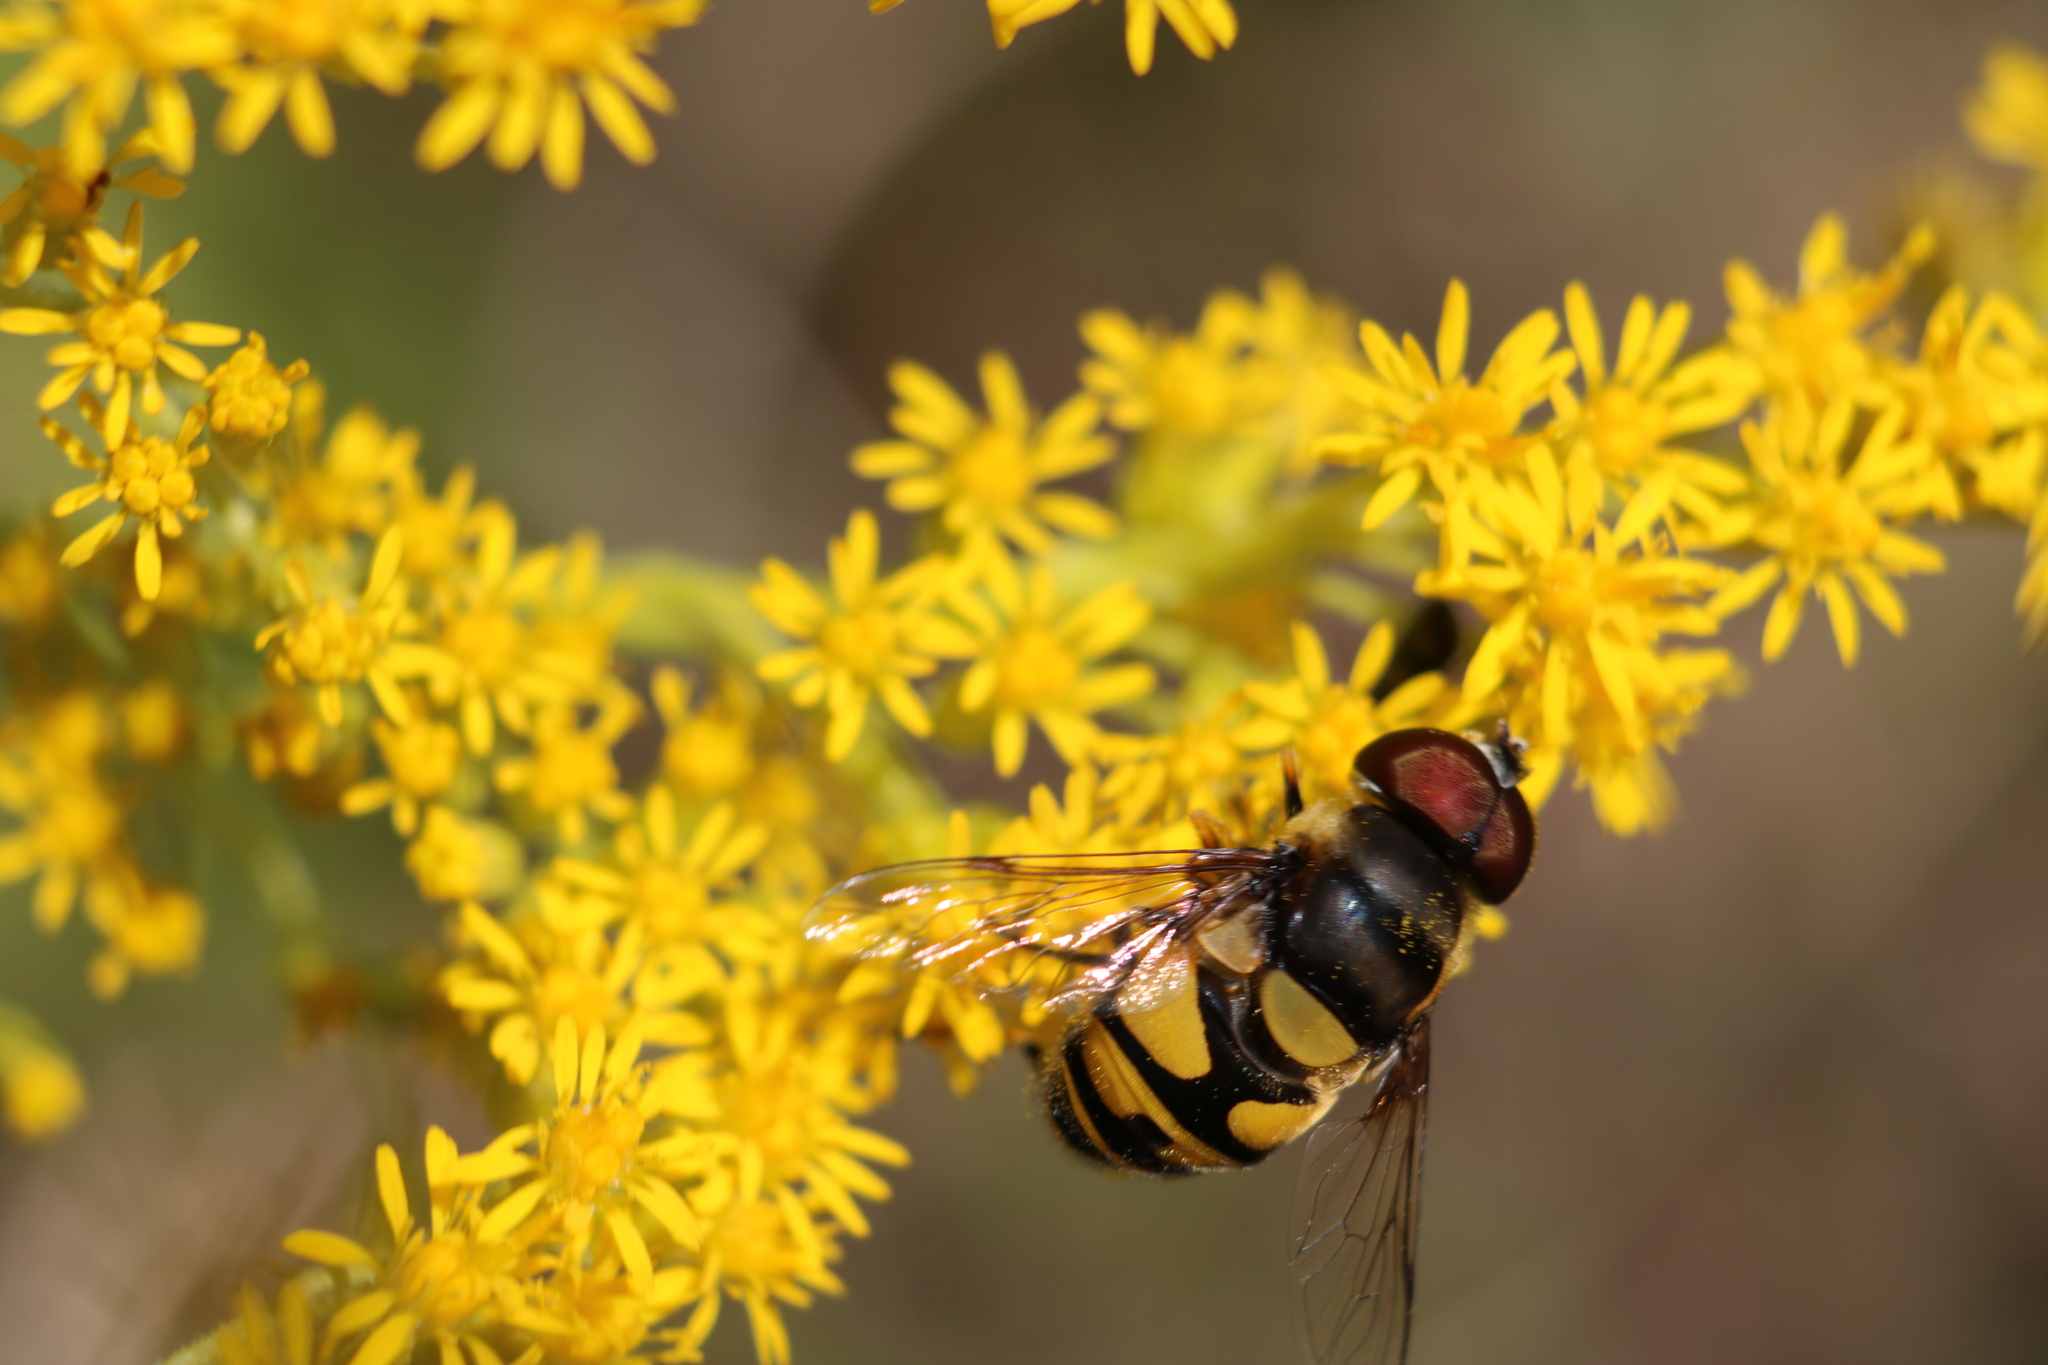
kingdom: Animalia
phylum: Arthropoda
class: Insecta
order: Diptera
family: Syrphidae
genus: Eristalis
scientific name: Eristalis transversa
